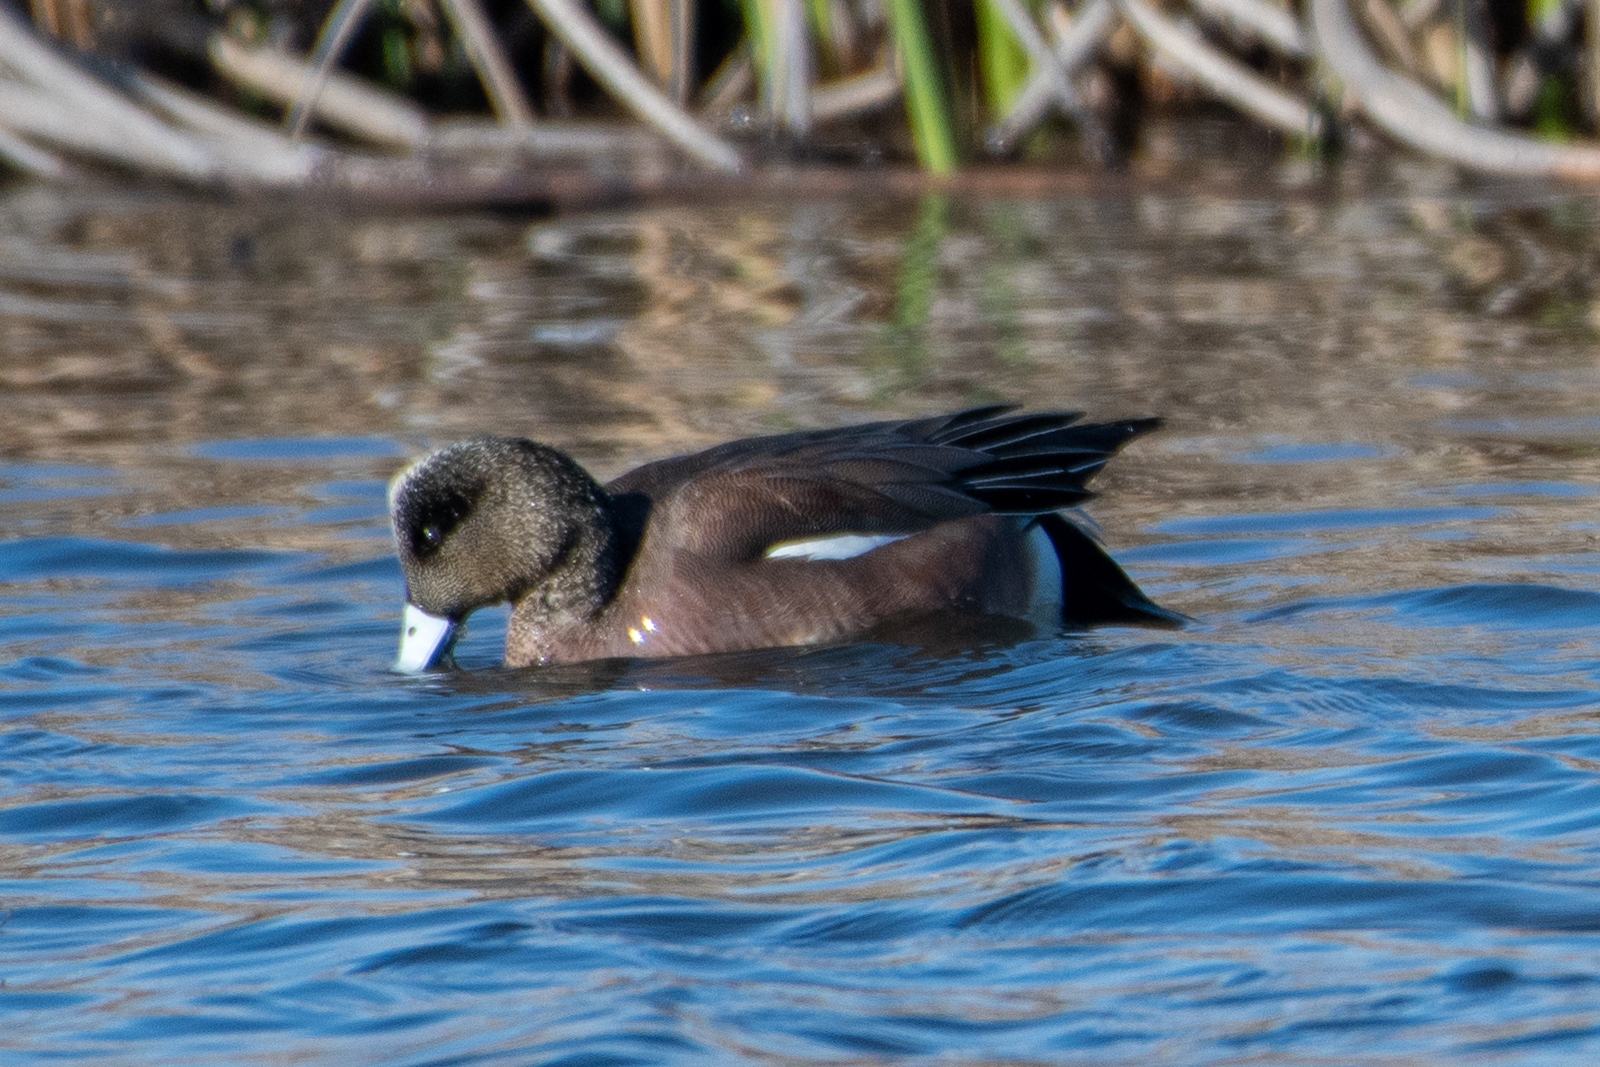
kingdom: Animalia
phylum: Chordata
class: Aves
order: Anseriformes
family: Anatidae
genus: Mareca
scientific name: Mareca americana
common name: American wigeon
